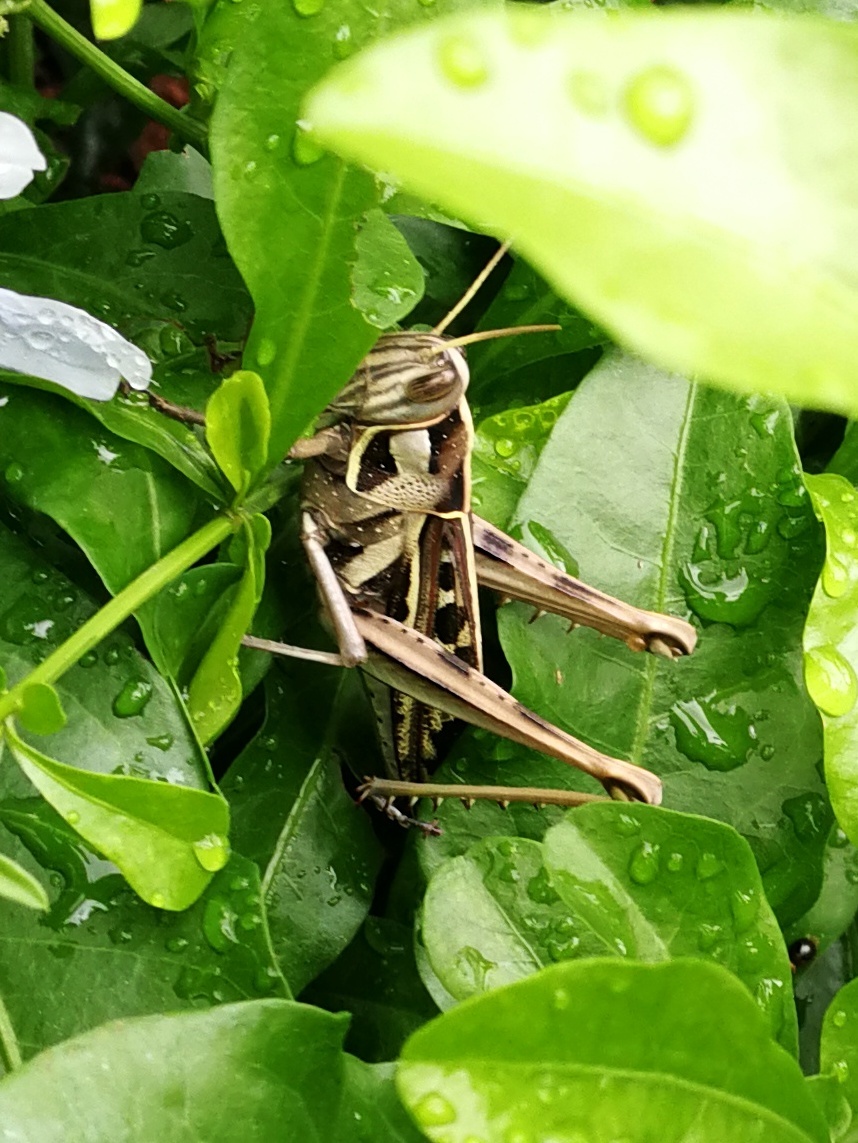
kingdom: Animalia
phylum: Arthropoda
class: Insecta
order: Orthoptera
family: Acrididae
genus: Cyrtacanthacris
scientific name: Cyrtacanthacris tatarica
